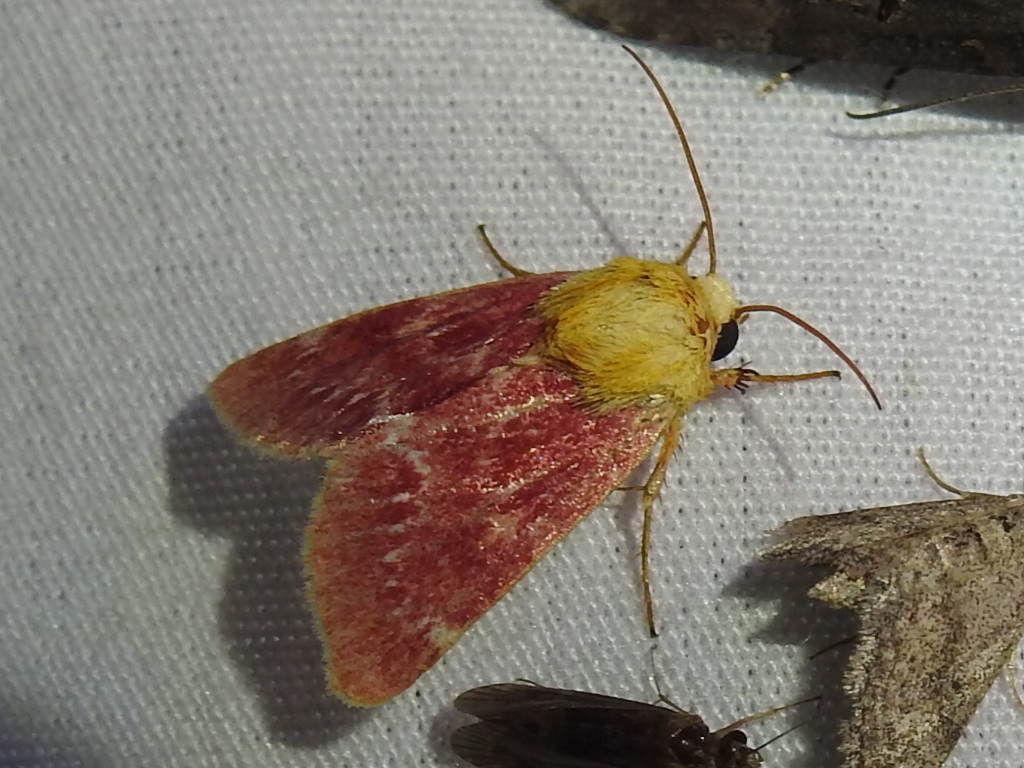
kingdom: Animalia
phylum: Arthropoda
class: Insecta
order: Lepidoptera
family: Noctuidae
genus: Schinia
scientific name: Schinia volupia
